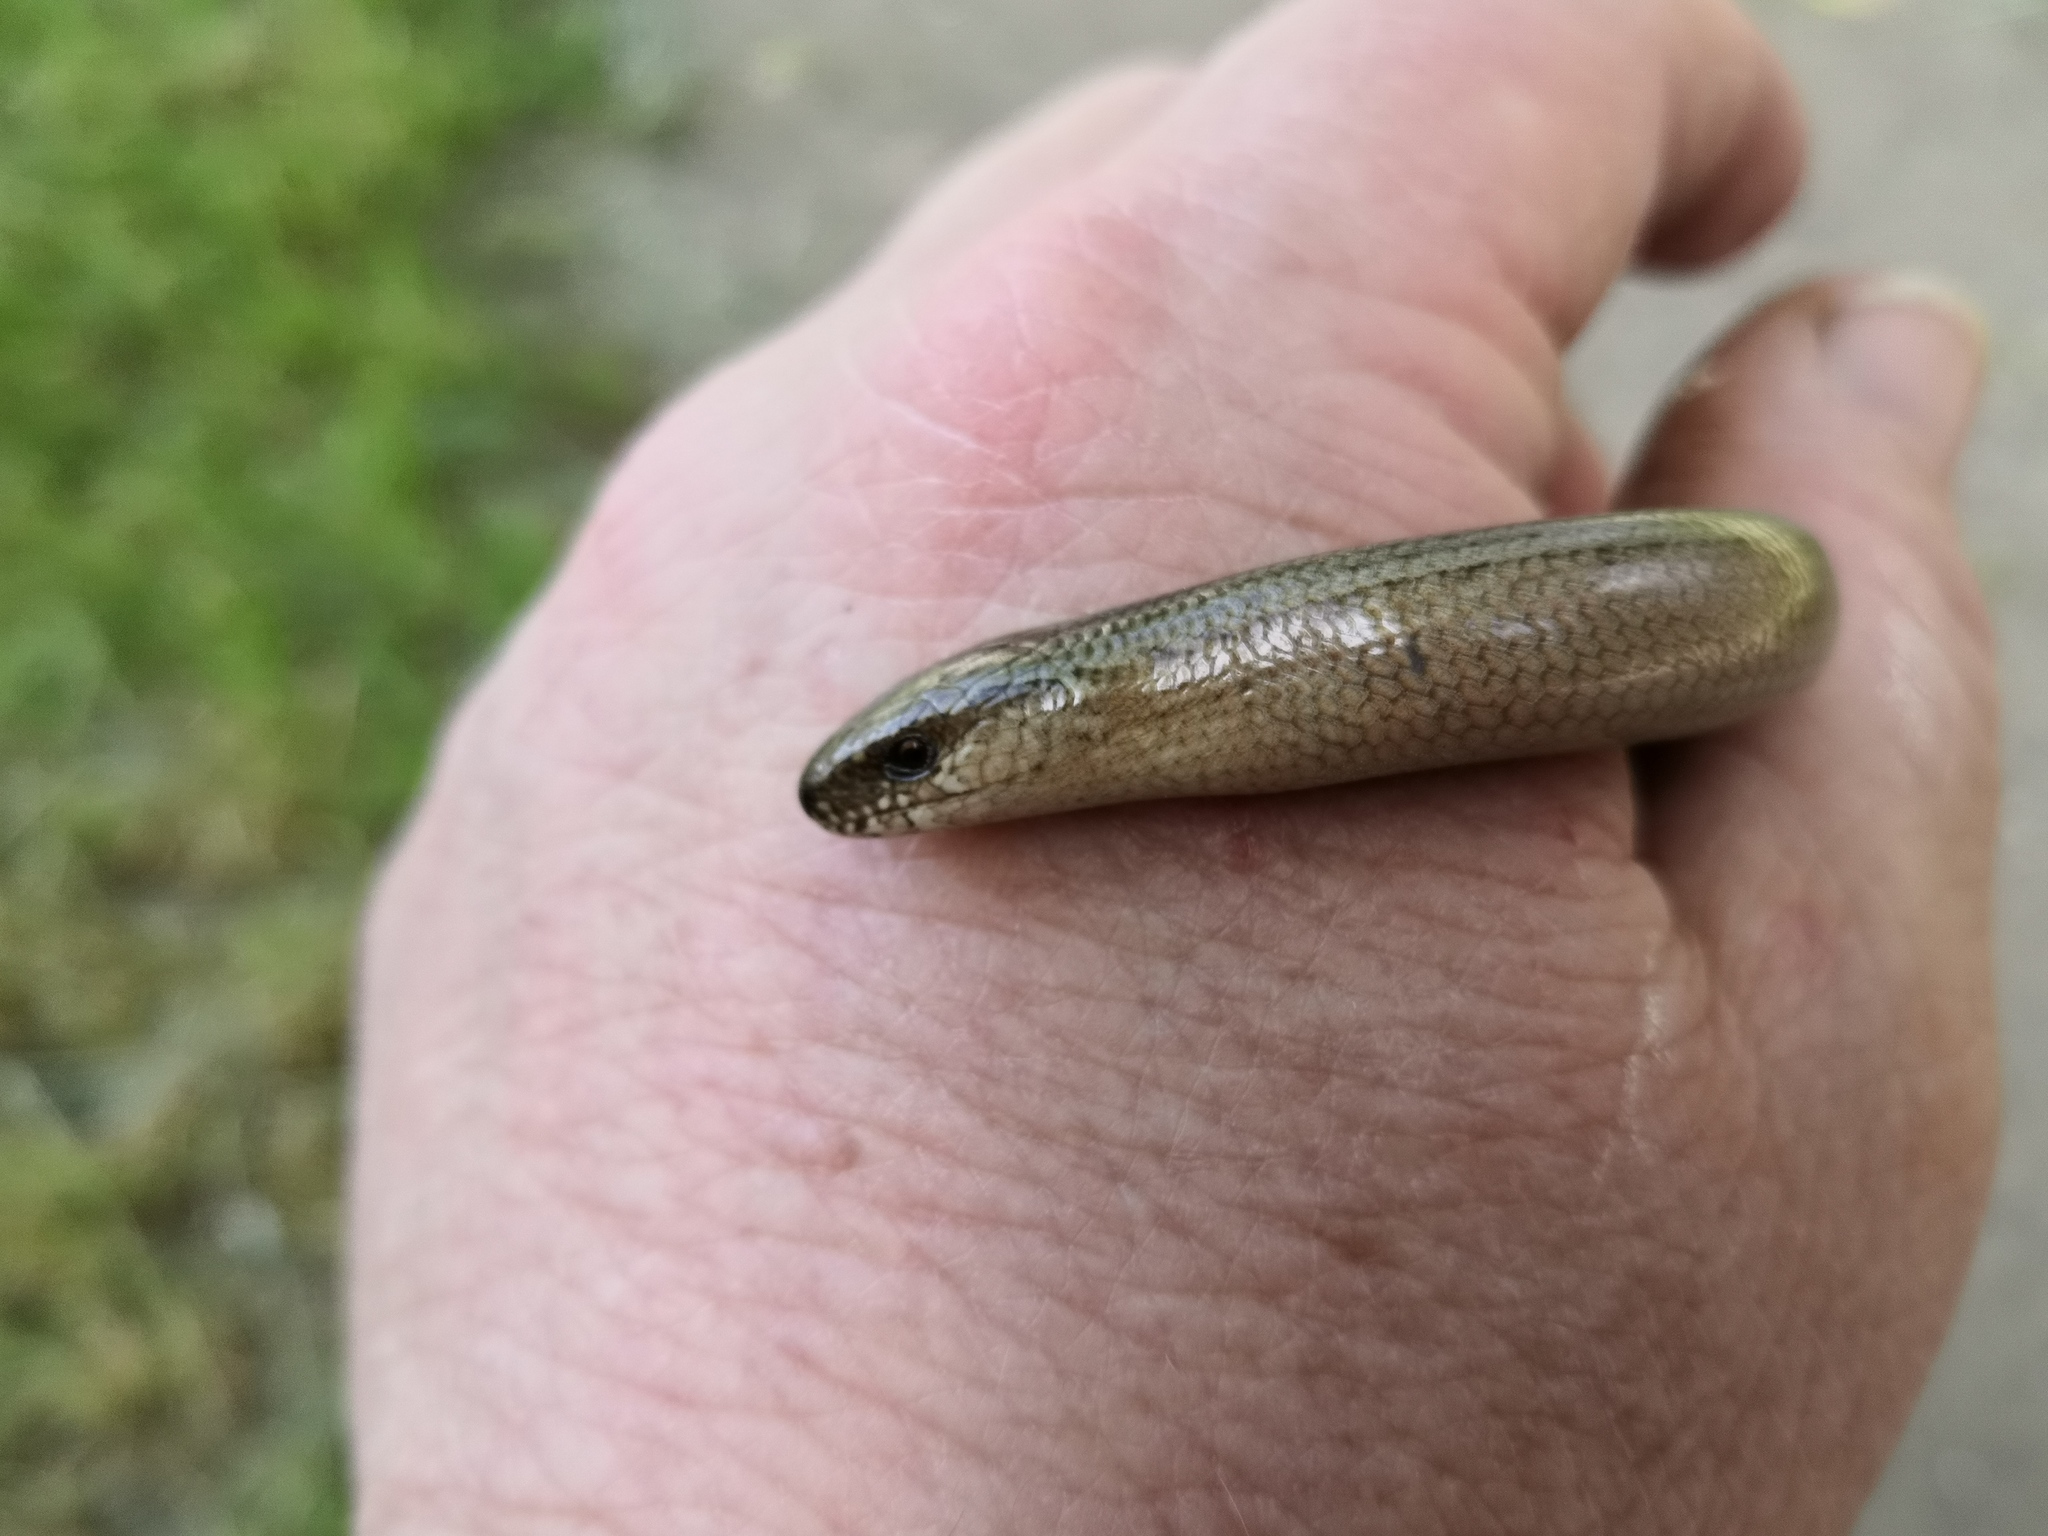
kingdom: Animalia
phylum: Chordata
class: Squamata
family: Anguidae
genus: Anguis
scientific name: Anguis fragilis
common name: Slow worm
